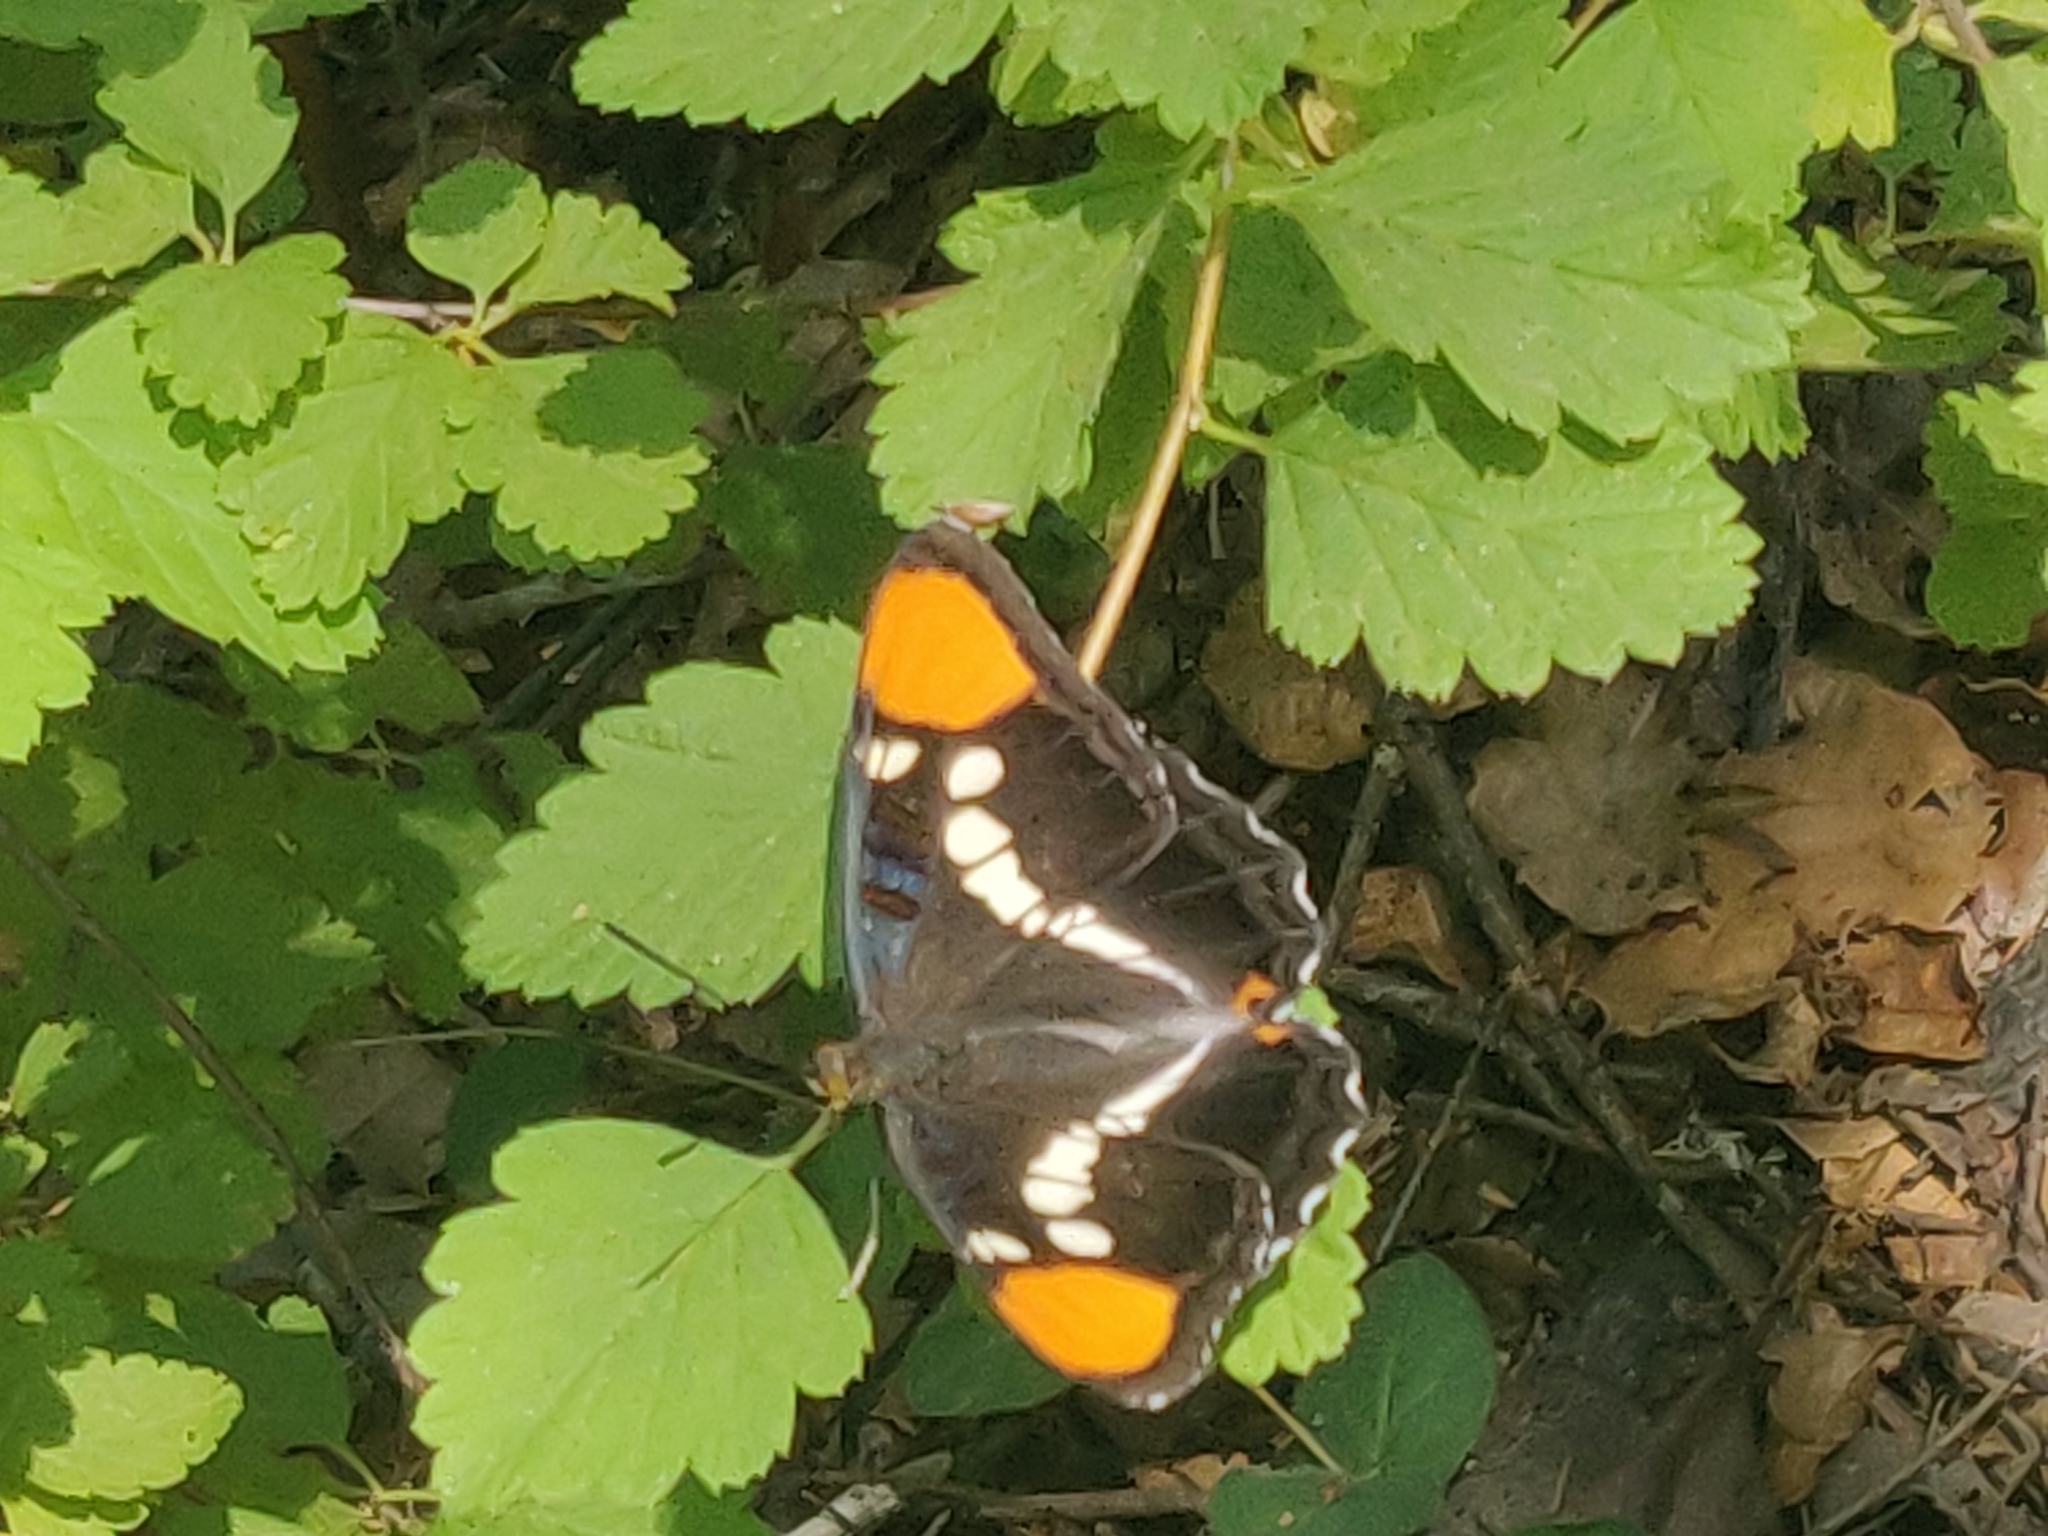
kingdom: Animalia
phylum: Arthropoda
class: Insecta
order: Lepidoptera
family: Nymphalidae
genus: Limenitis
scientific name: Limenitis bredowii
